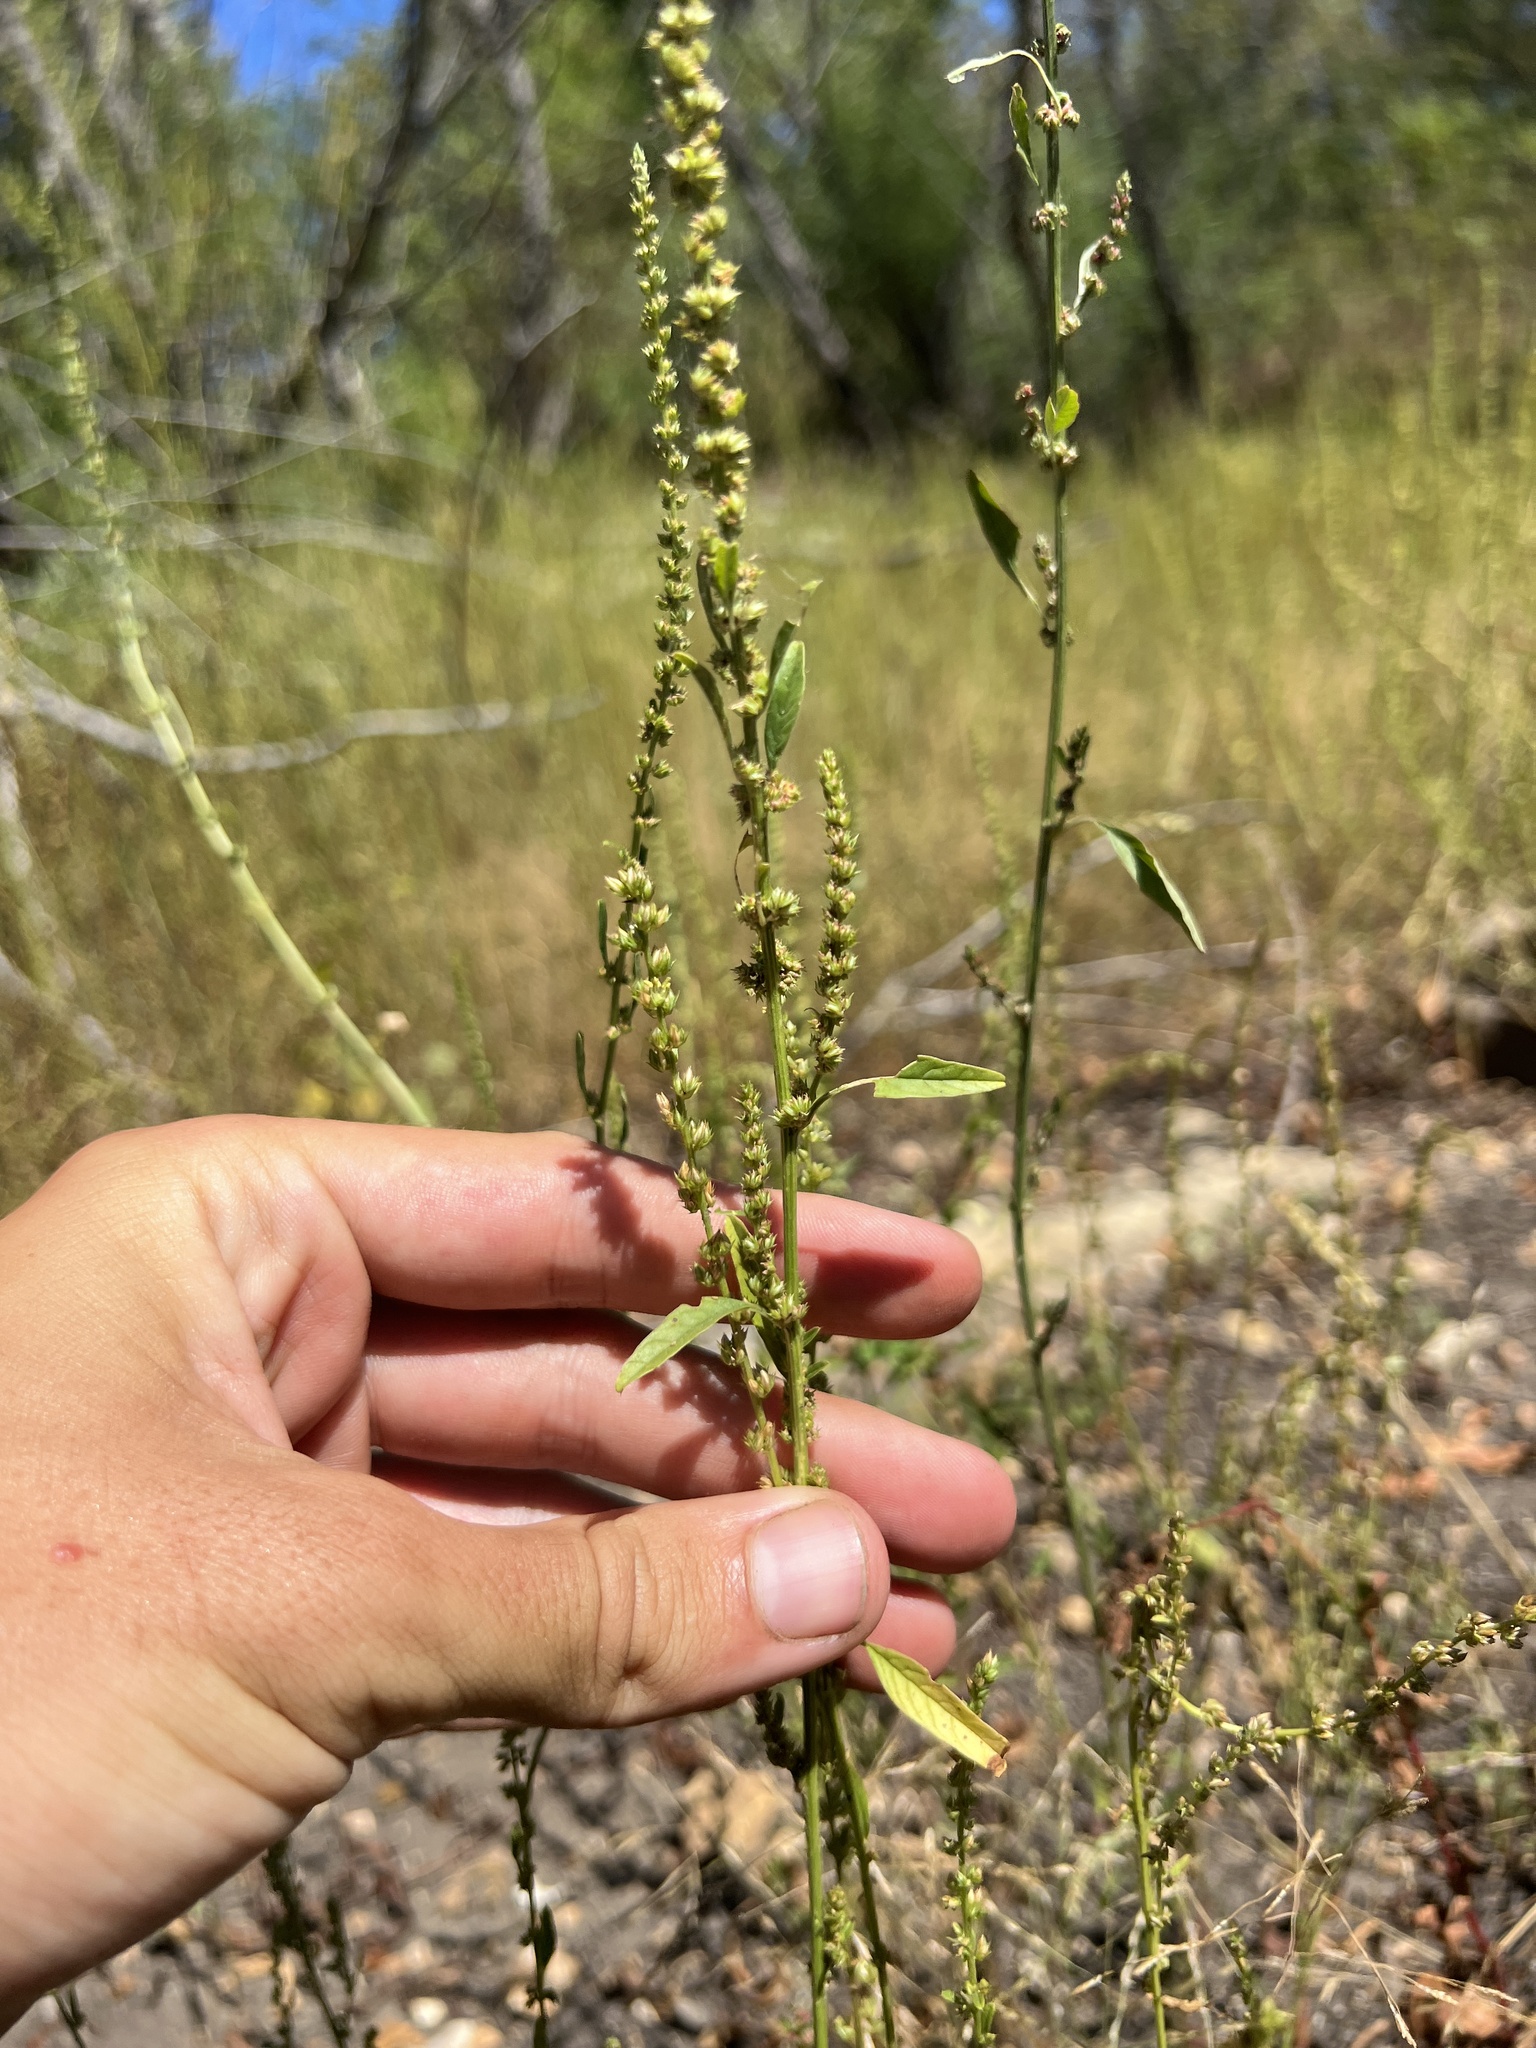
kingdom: Plantae
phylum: Tracheophyta
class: Magnoliopsida
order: Caryophyllales
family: Amaranthaceae
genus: Amaranthus
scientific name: Amaranthus tuberculatus
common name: Rough-fruit amaranth
